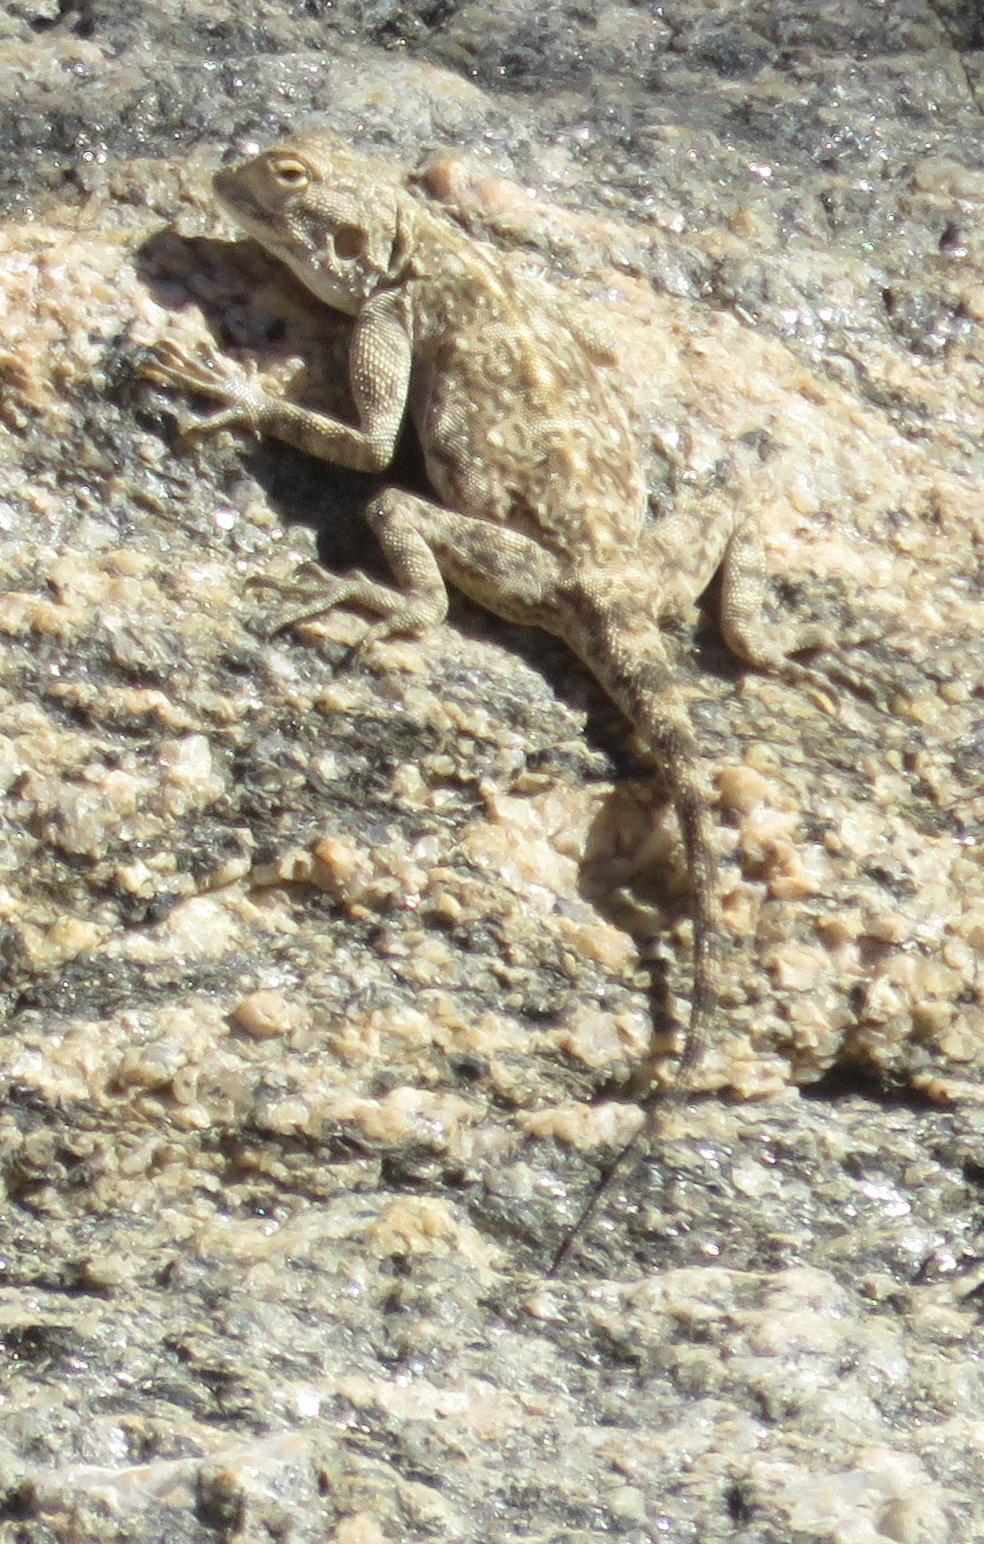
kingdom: Animalia
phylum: Chordata
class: Squamata
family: Agamidae
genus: Agama
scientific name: Agama atra
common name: Southern african rock agama
